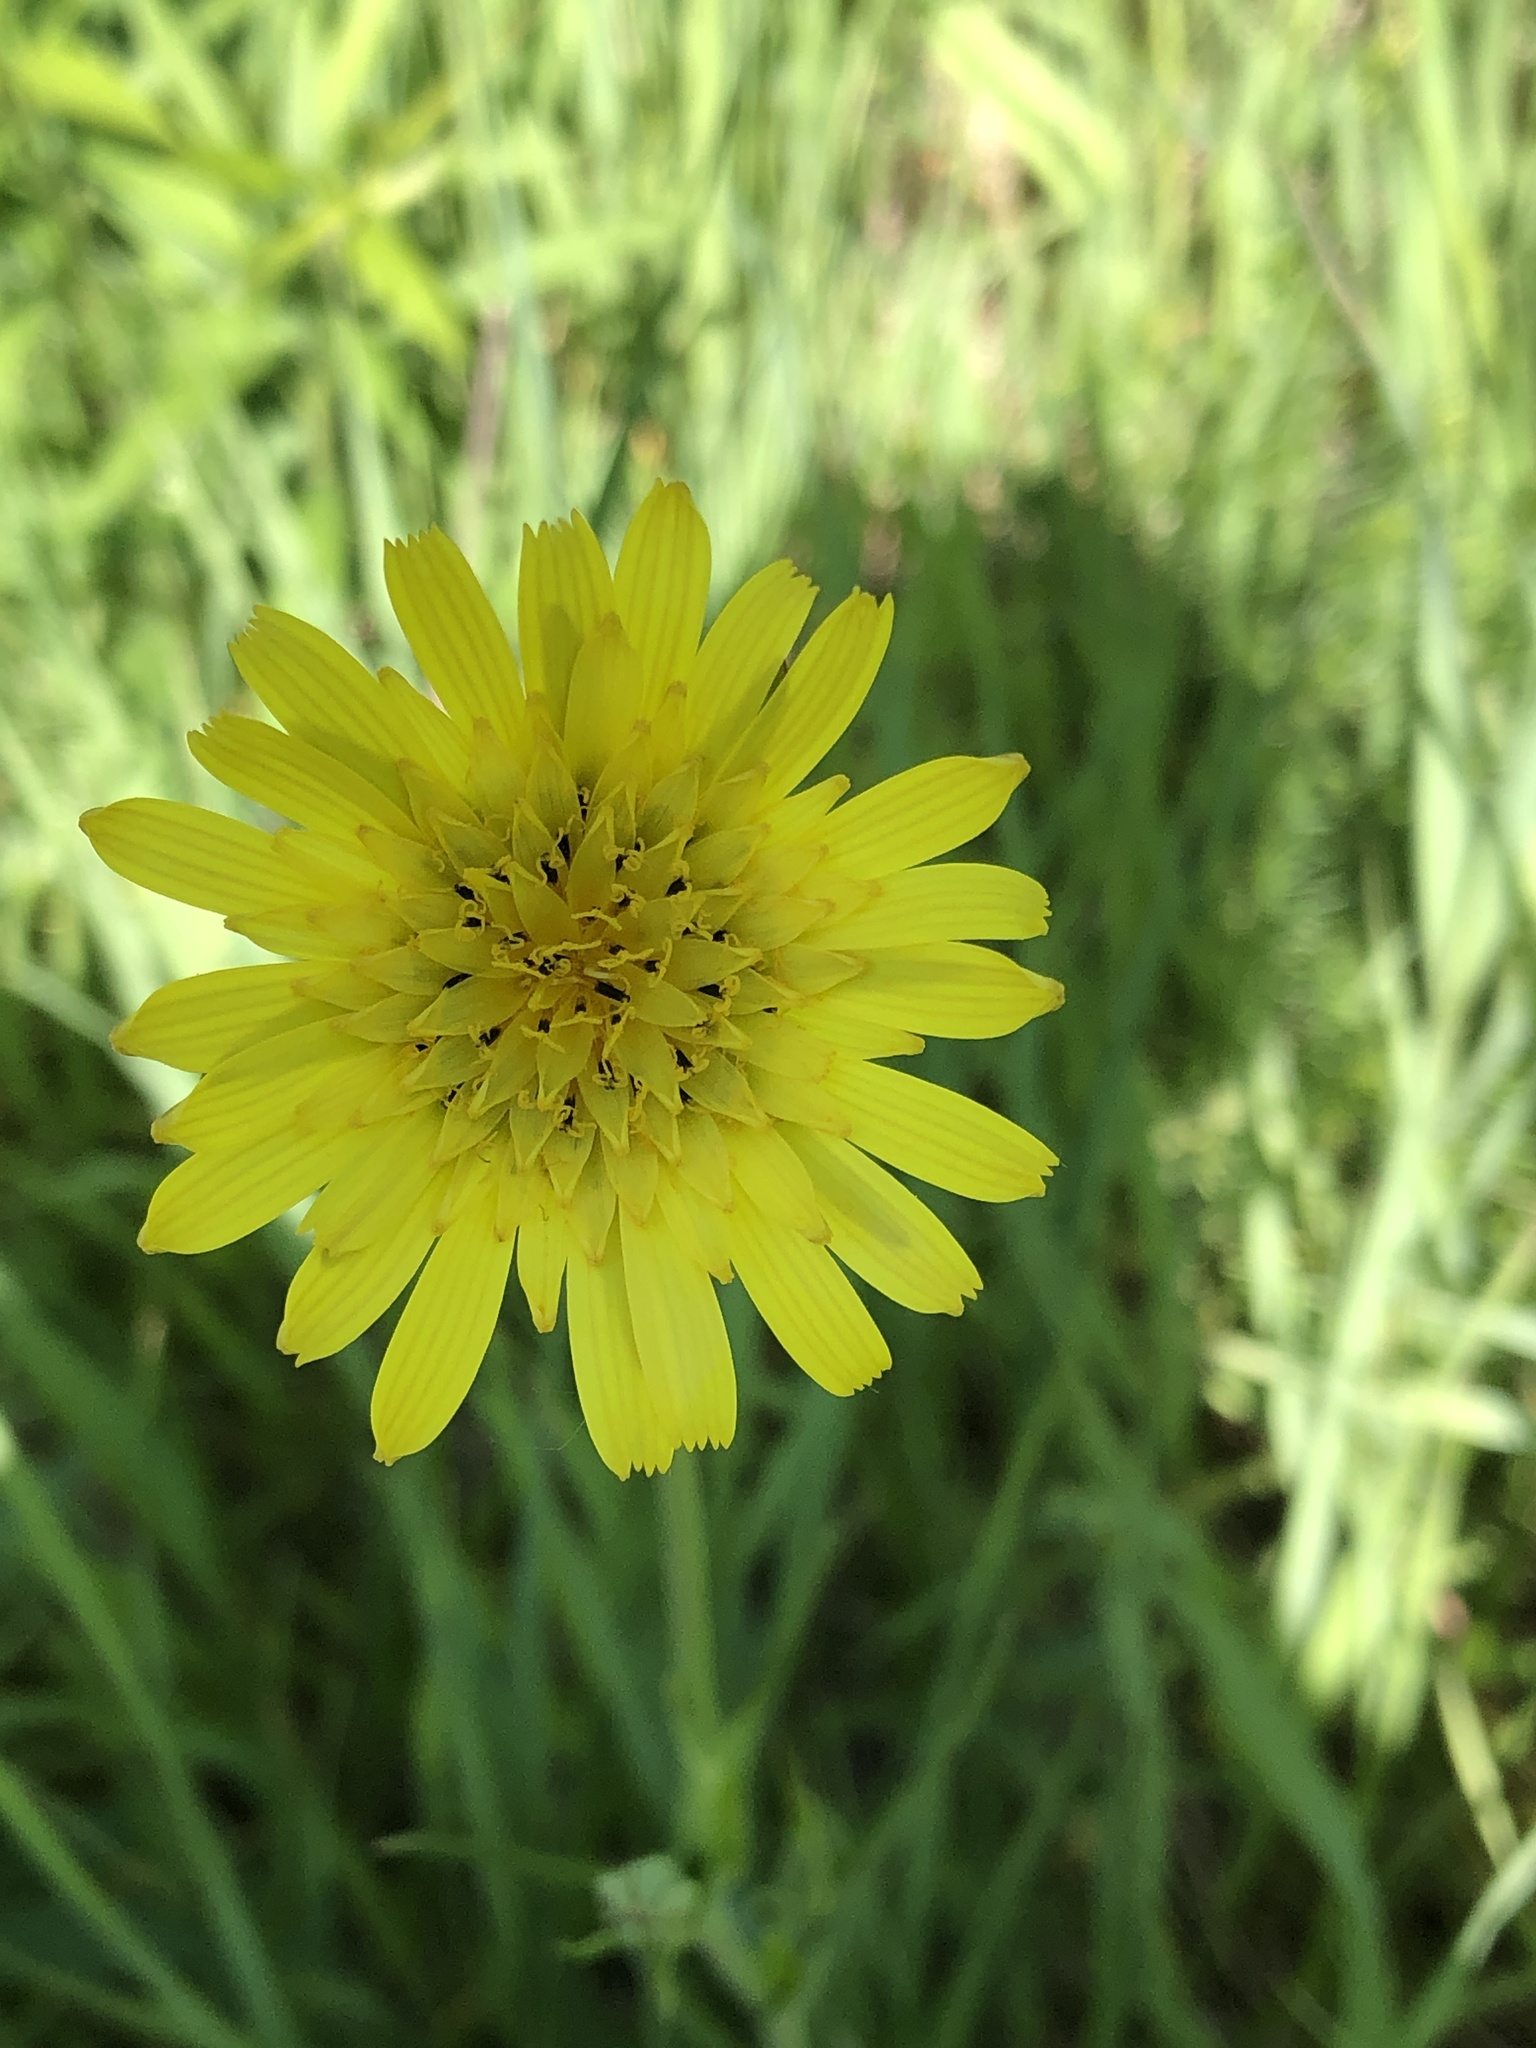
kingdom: Plantae
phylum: Tracheophyta
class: Magnoliopsida
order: Asterales
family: Asteraceae
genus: Tragopogon
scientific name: Tragopogon pratensis
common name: Goat's-beard
